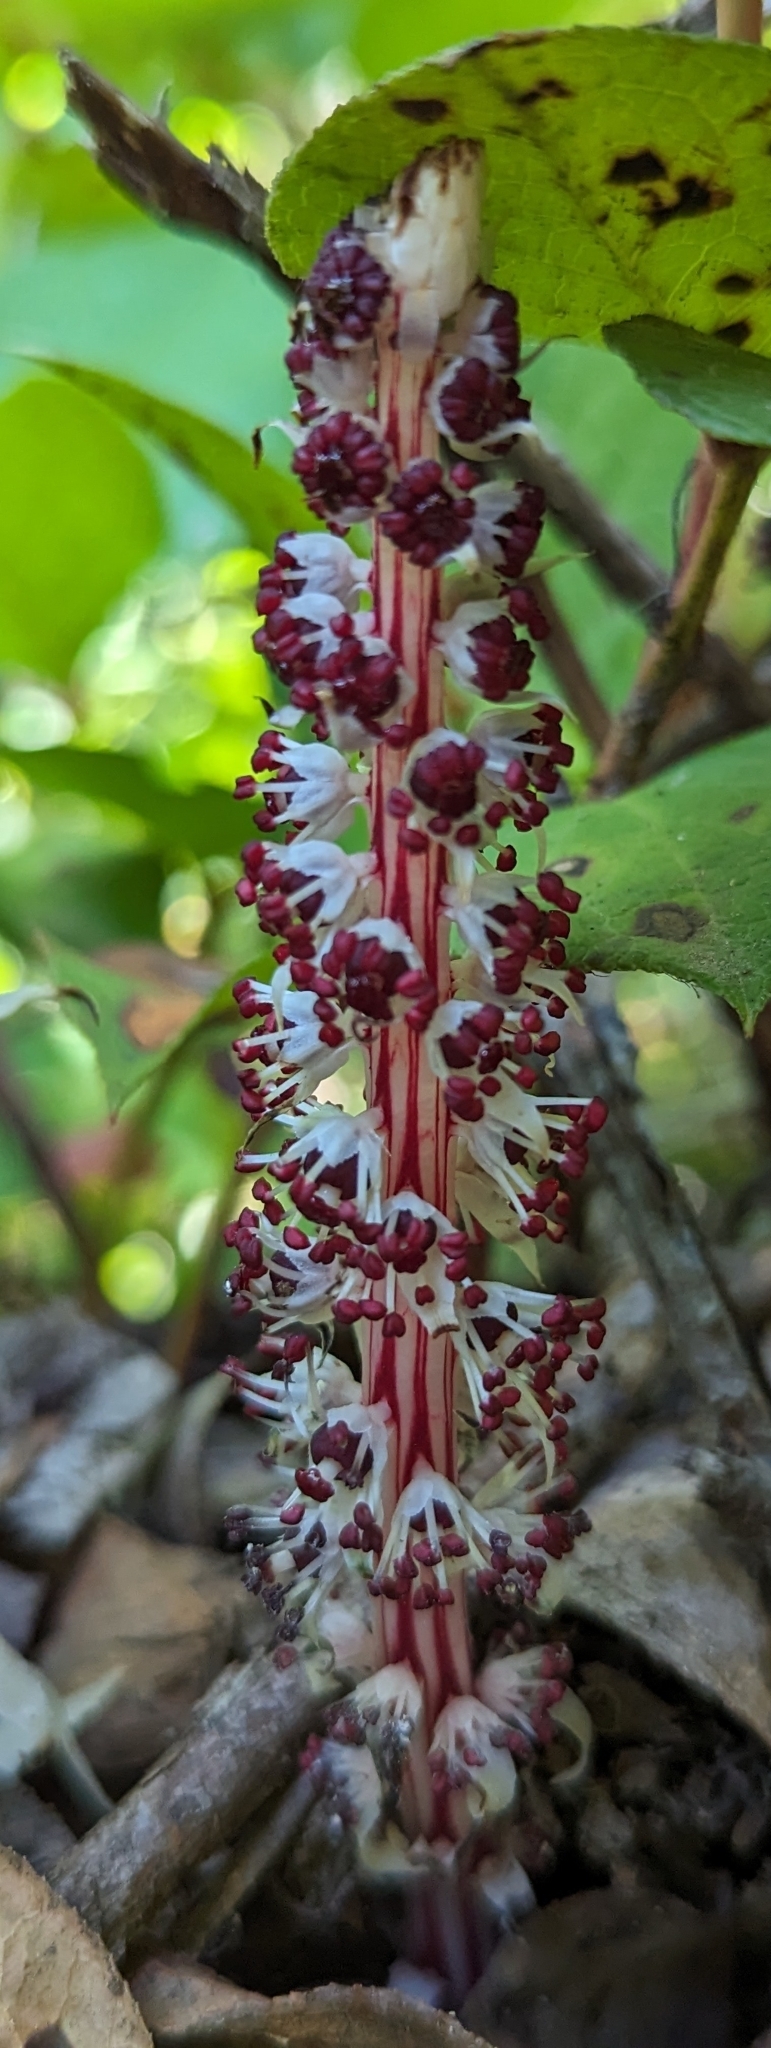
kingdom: Plantae
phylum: Tracheophyta
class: Magnoliopsida
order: Ericales
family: Ericaceae
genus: Allotropa
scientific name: Allotropa virgata
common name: Candy-striped allotropa
